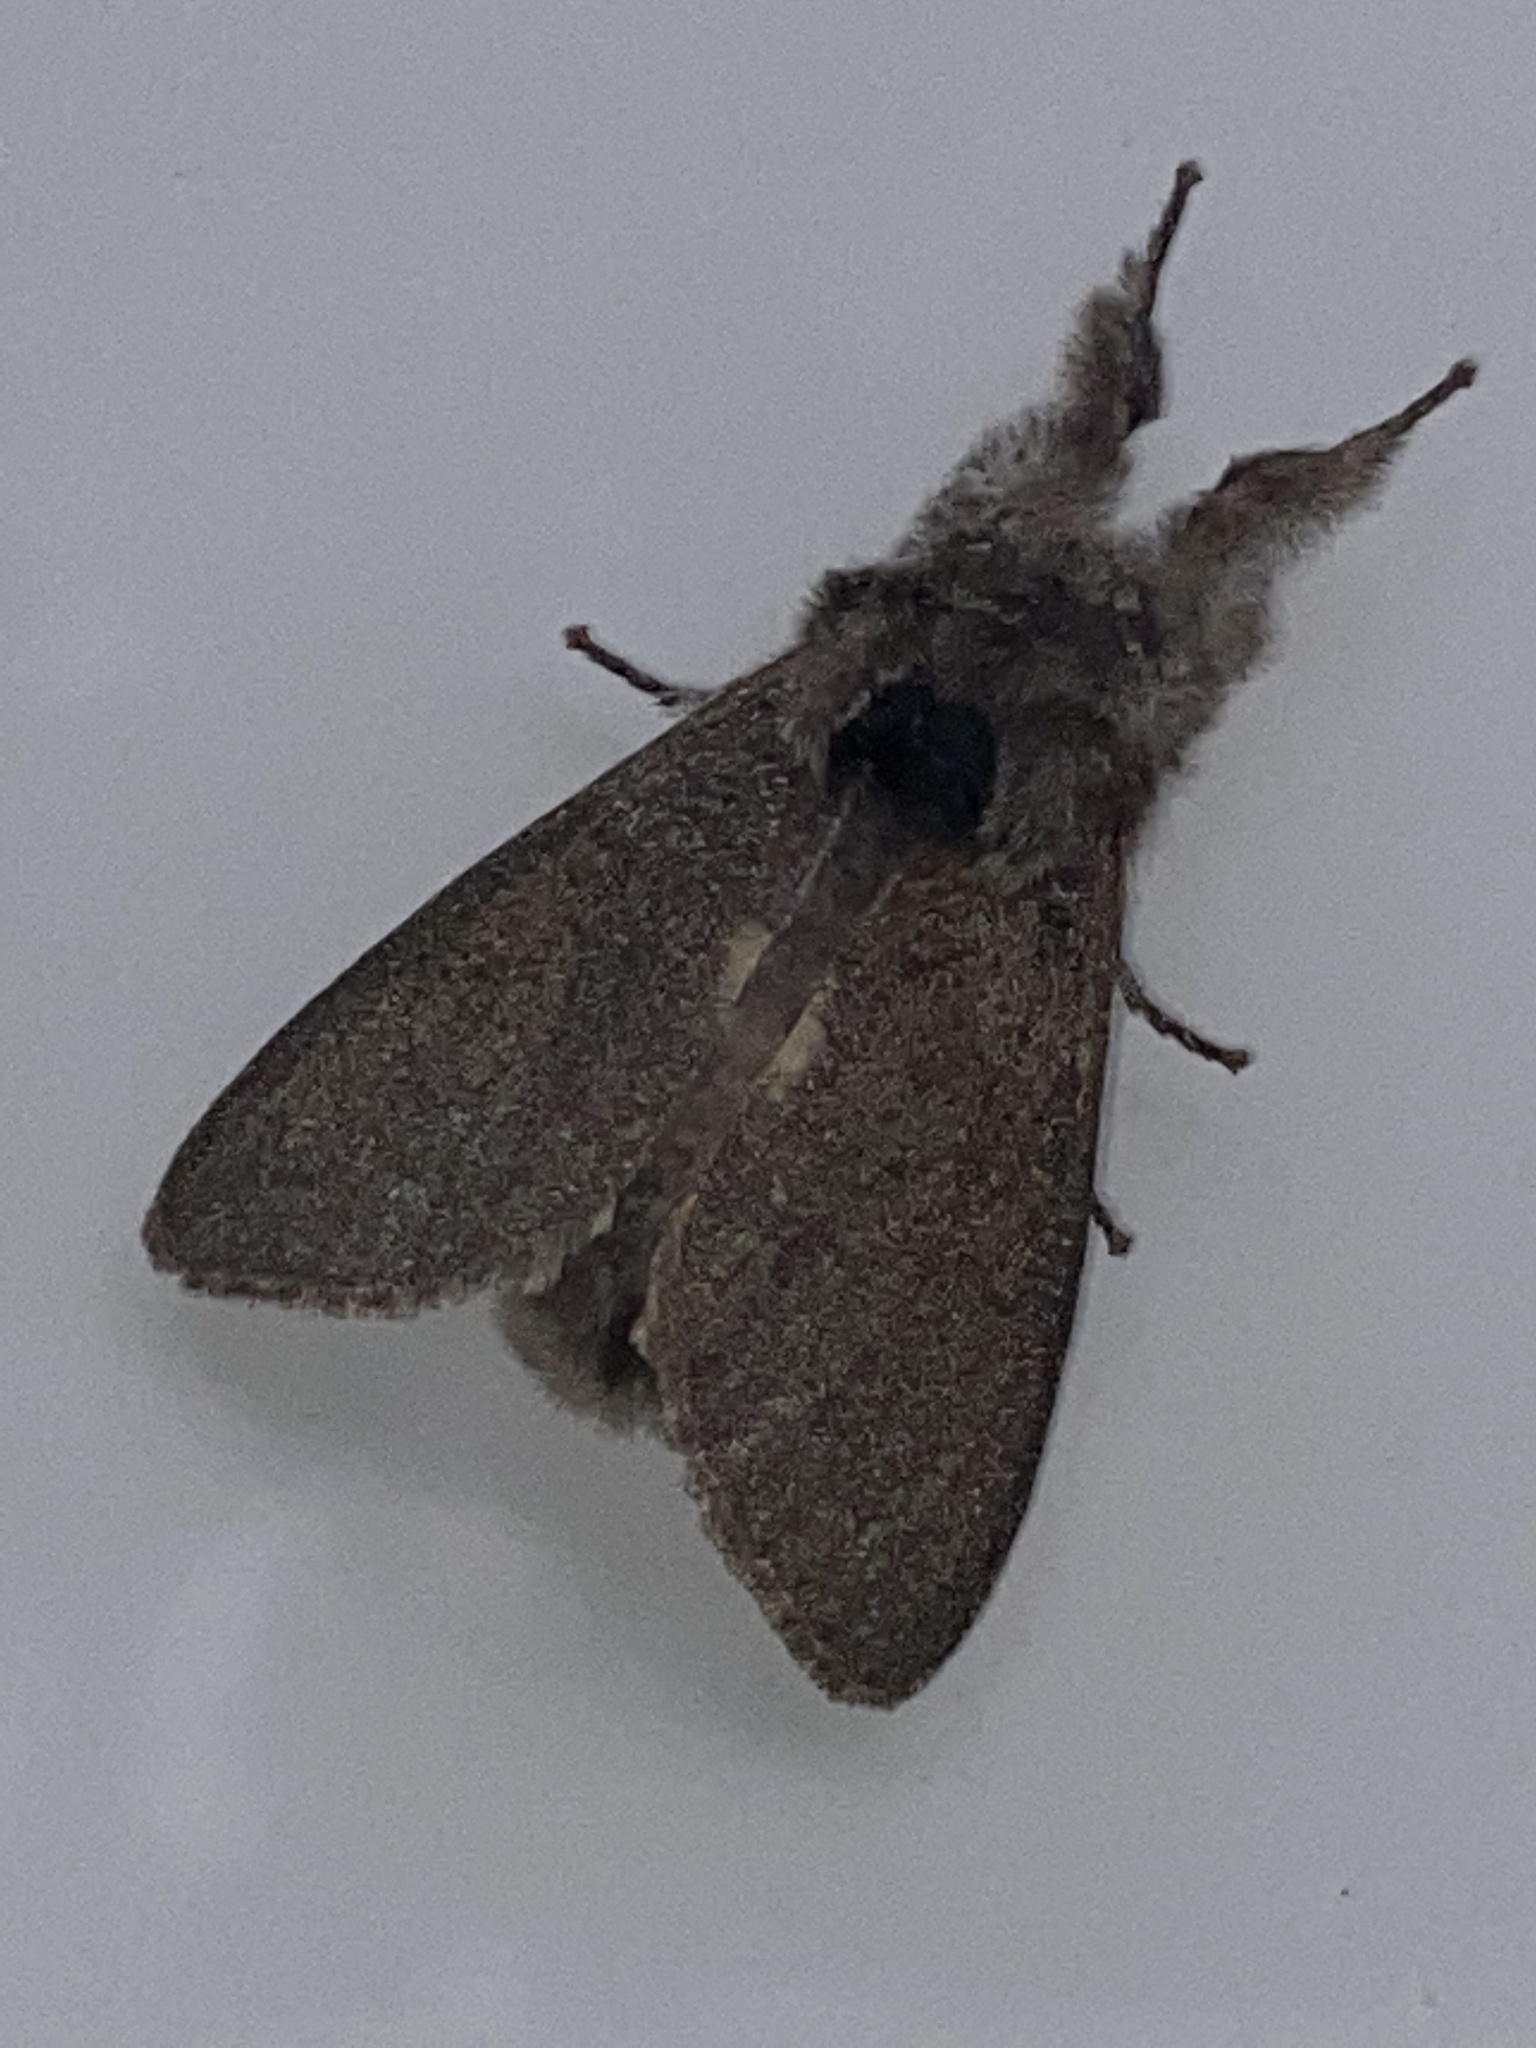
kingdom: Animalia
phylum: Arthropoda
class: Insecta
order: Lepidoptera
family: Erebidae
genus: Calliteara
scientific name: Calliteara pudibunda
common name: Pale tussock
